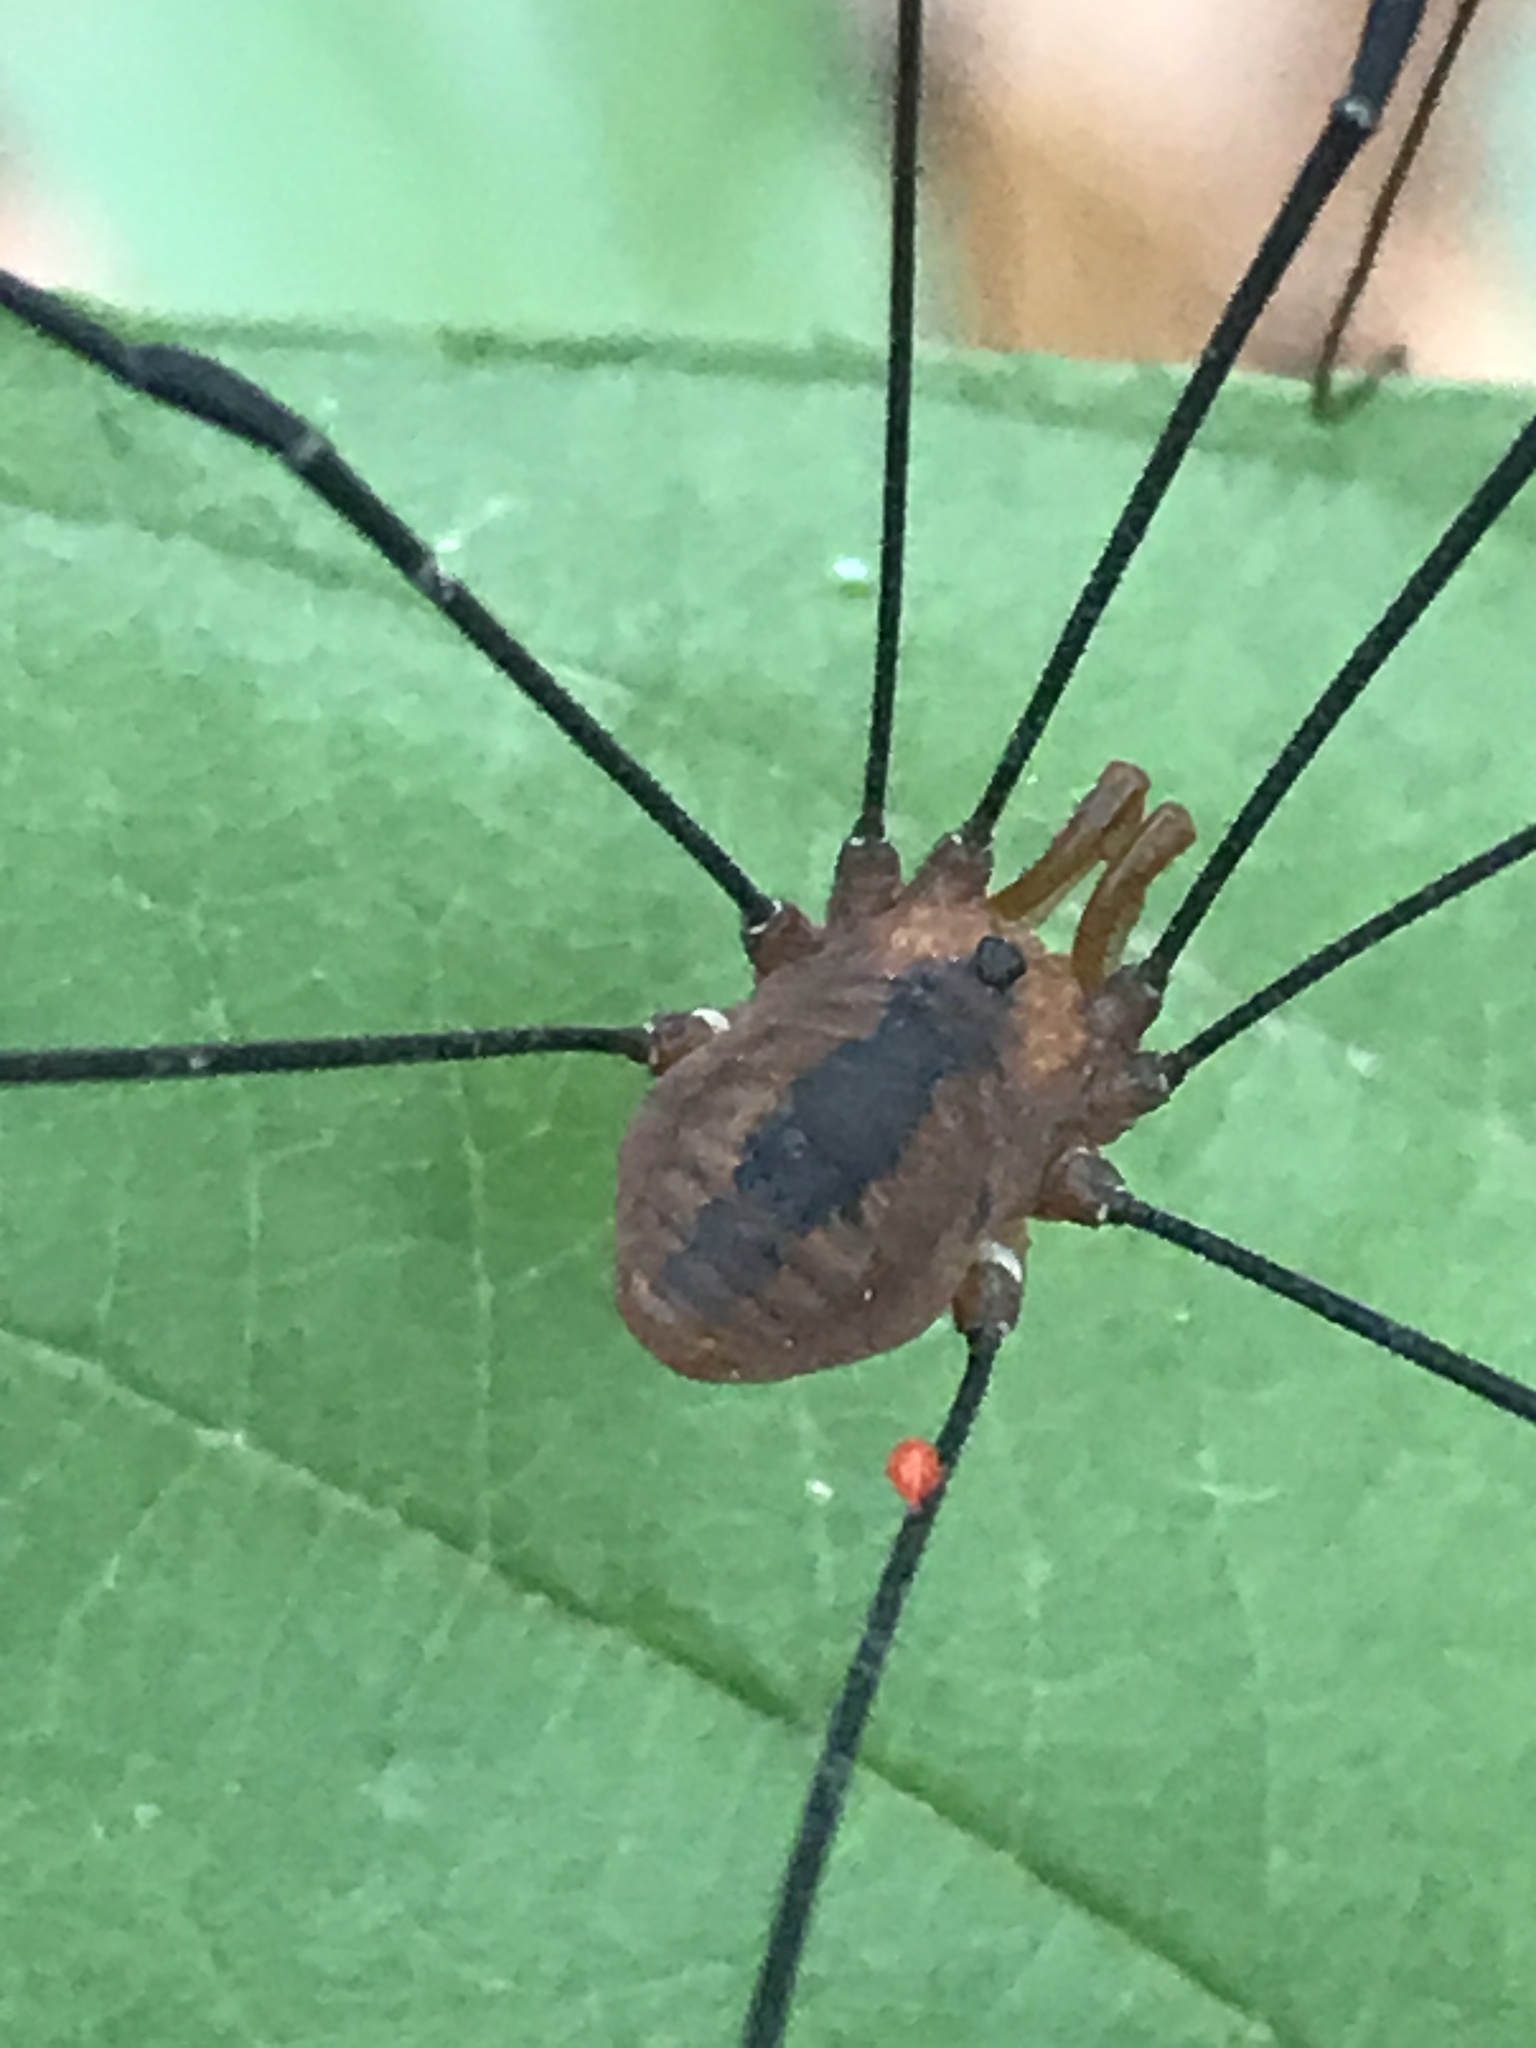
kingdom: Animalia
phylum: Arthropoda
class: Arachnida
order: Opiliones
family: Sclerosomatidae
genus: Leiobunum
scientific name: Leiobunum vittatum
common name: Eastern harvestman
